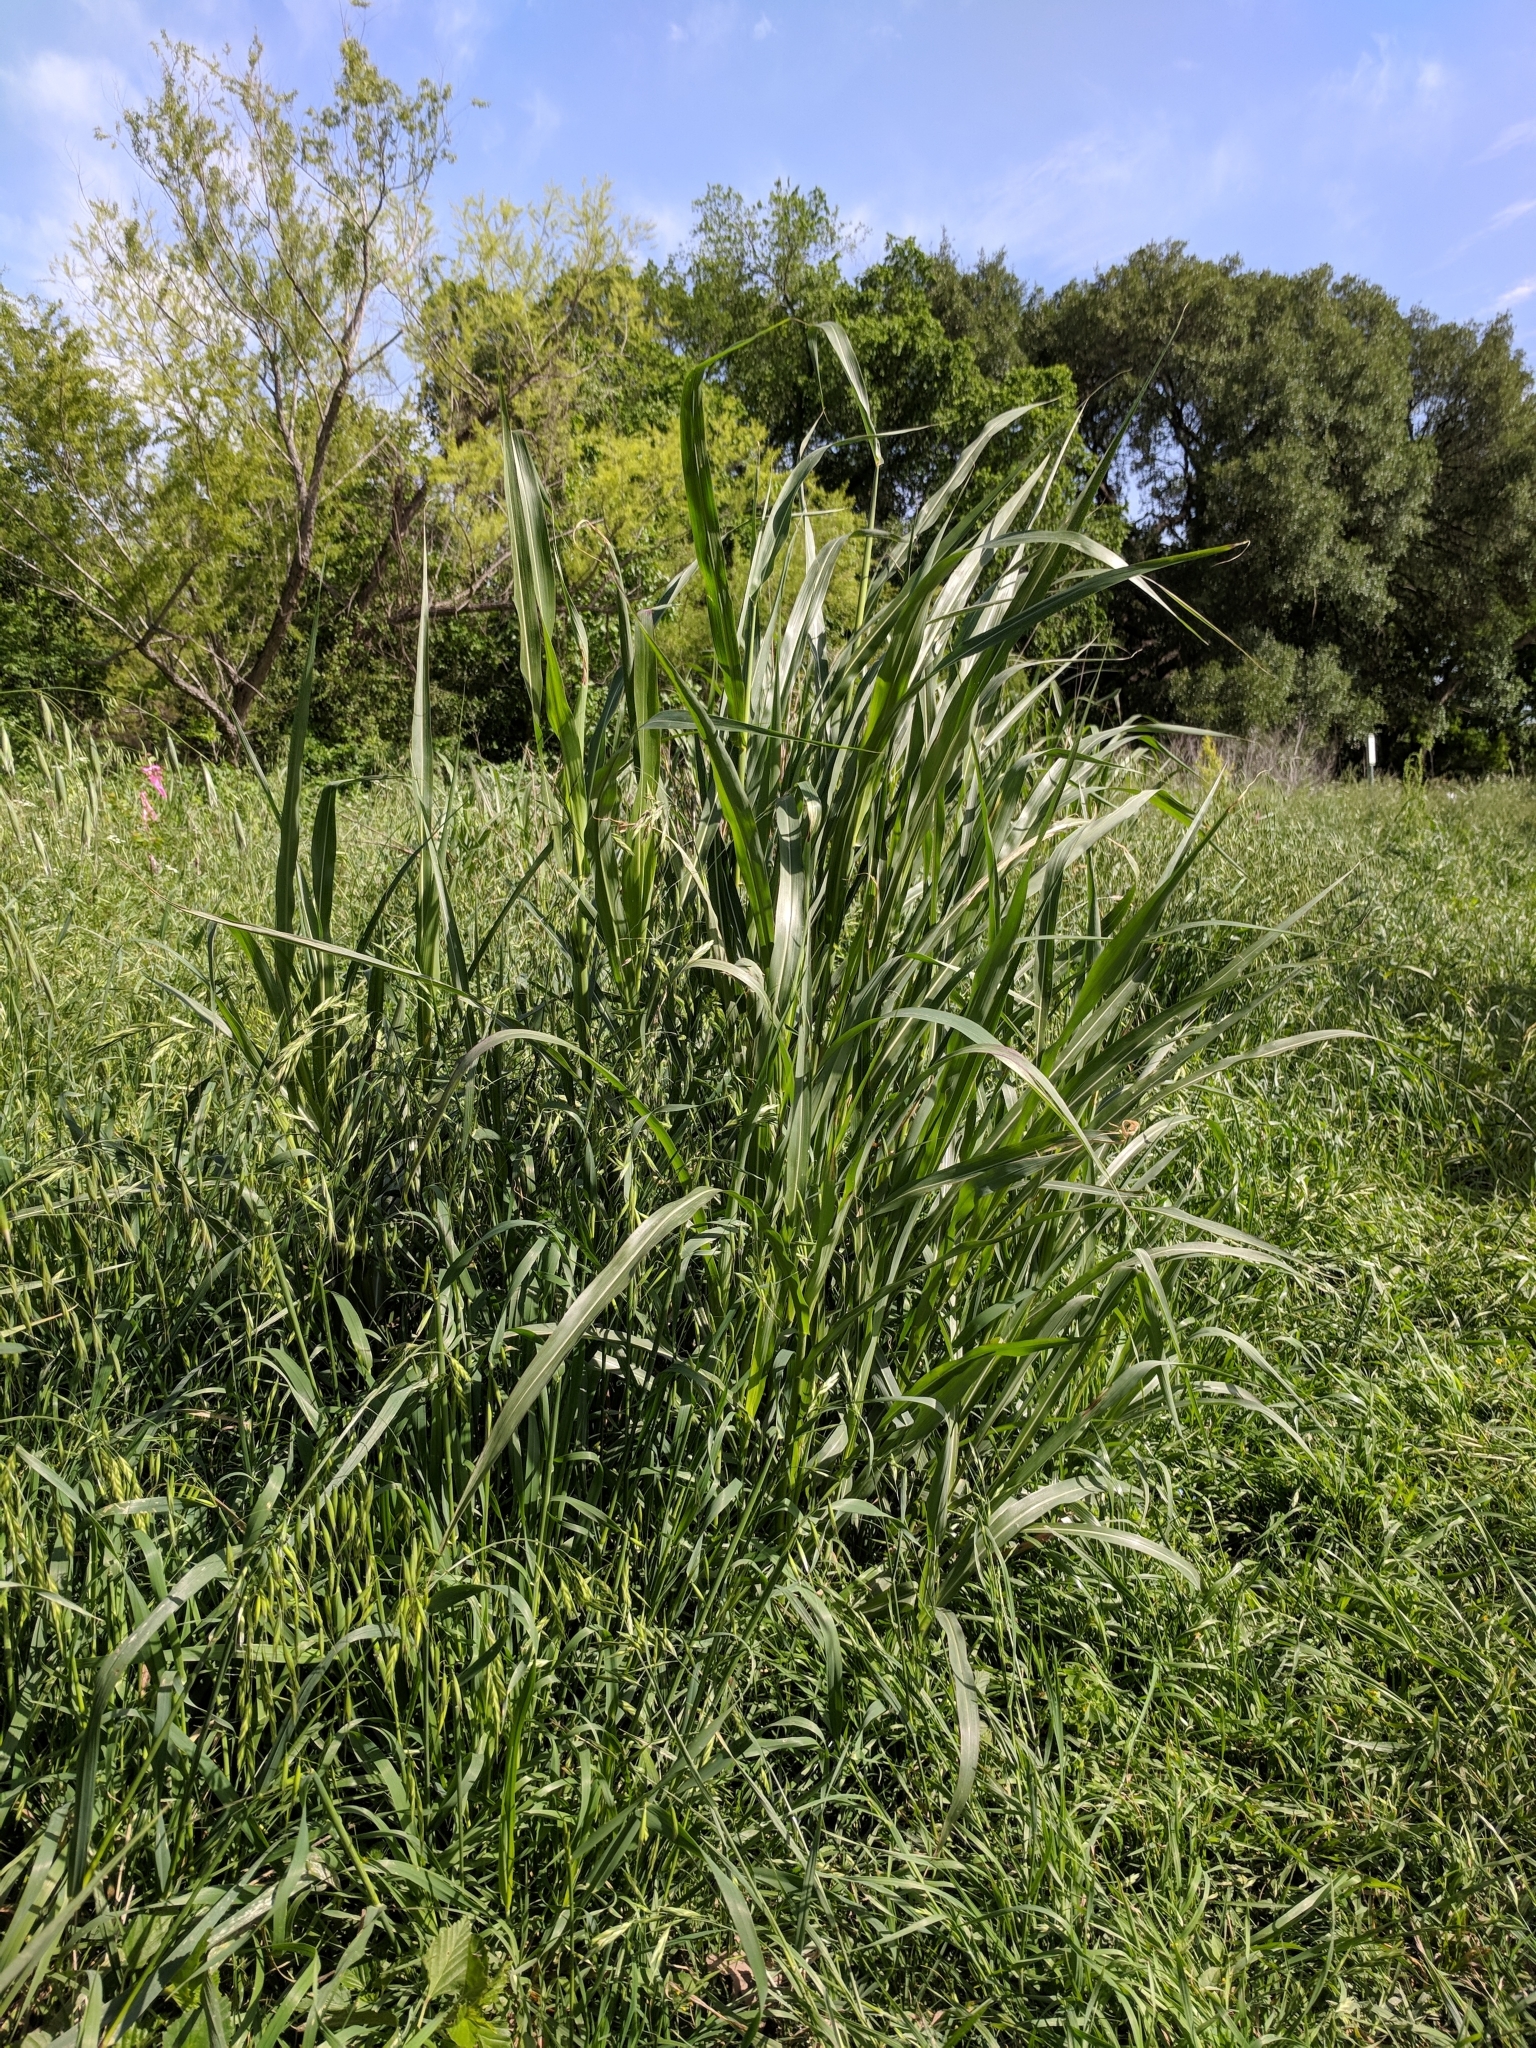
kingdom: Plantae
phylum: Tracheophyta
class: Liliopsida
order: Poales
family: Poaceae
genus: Sorghum
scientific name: Sorghum halepense
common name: Johnson-grass
